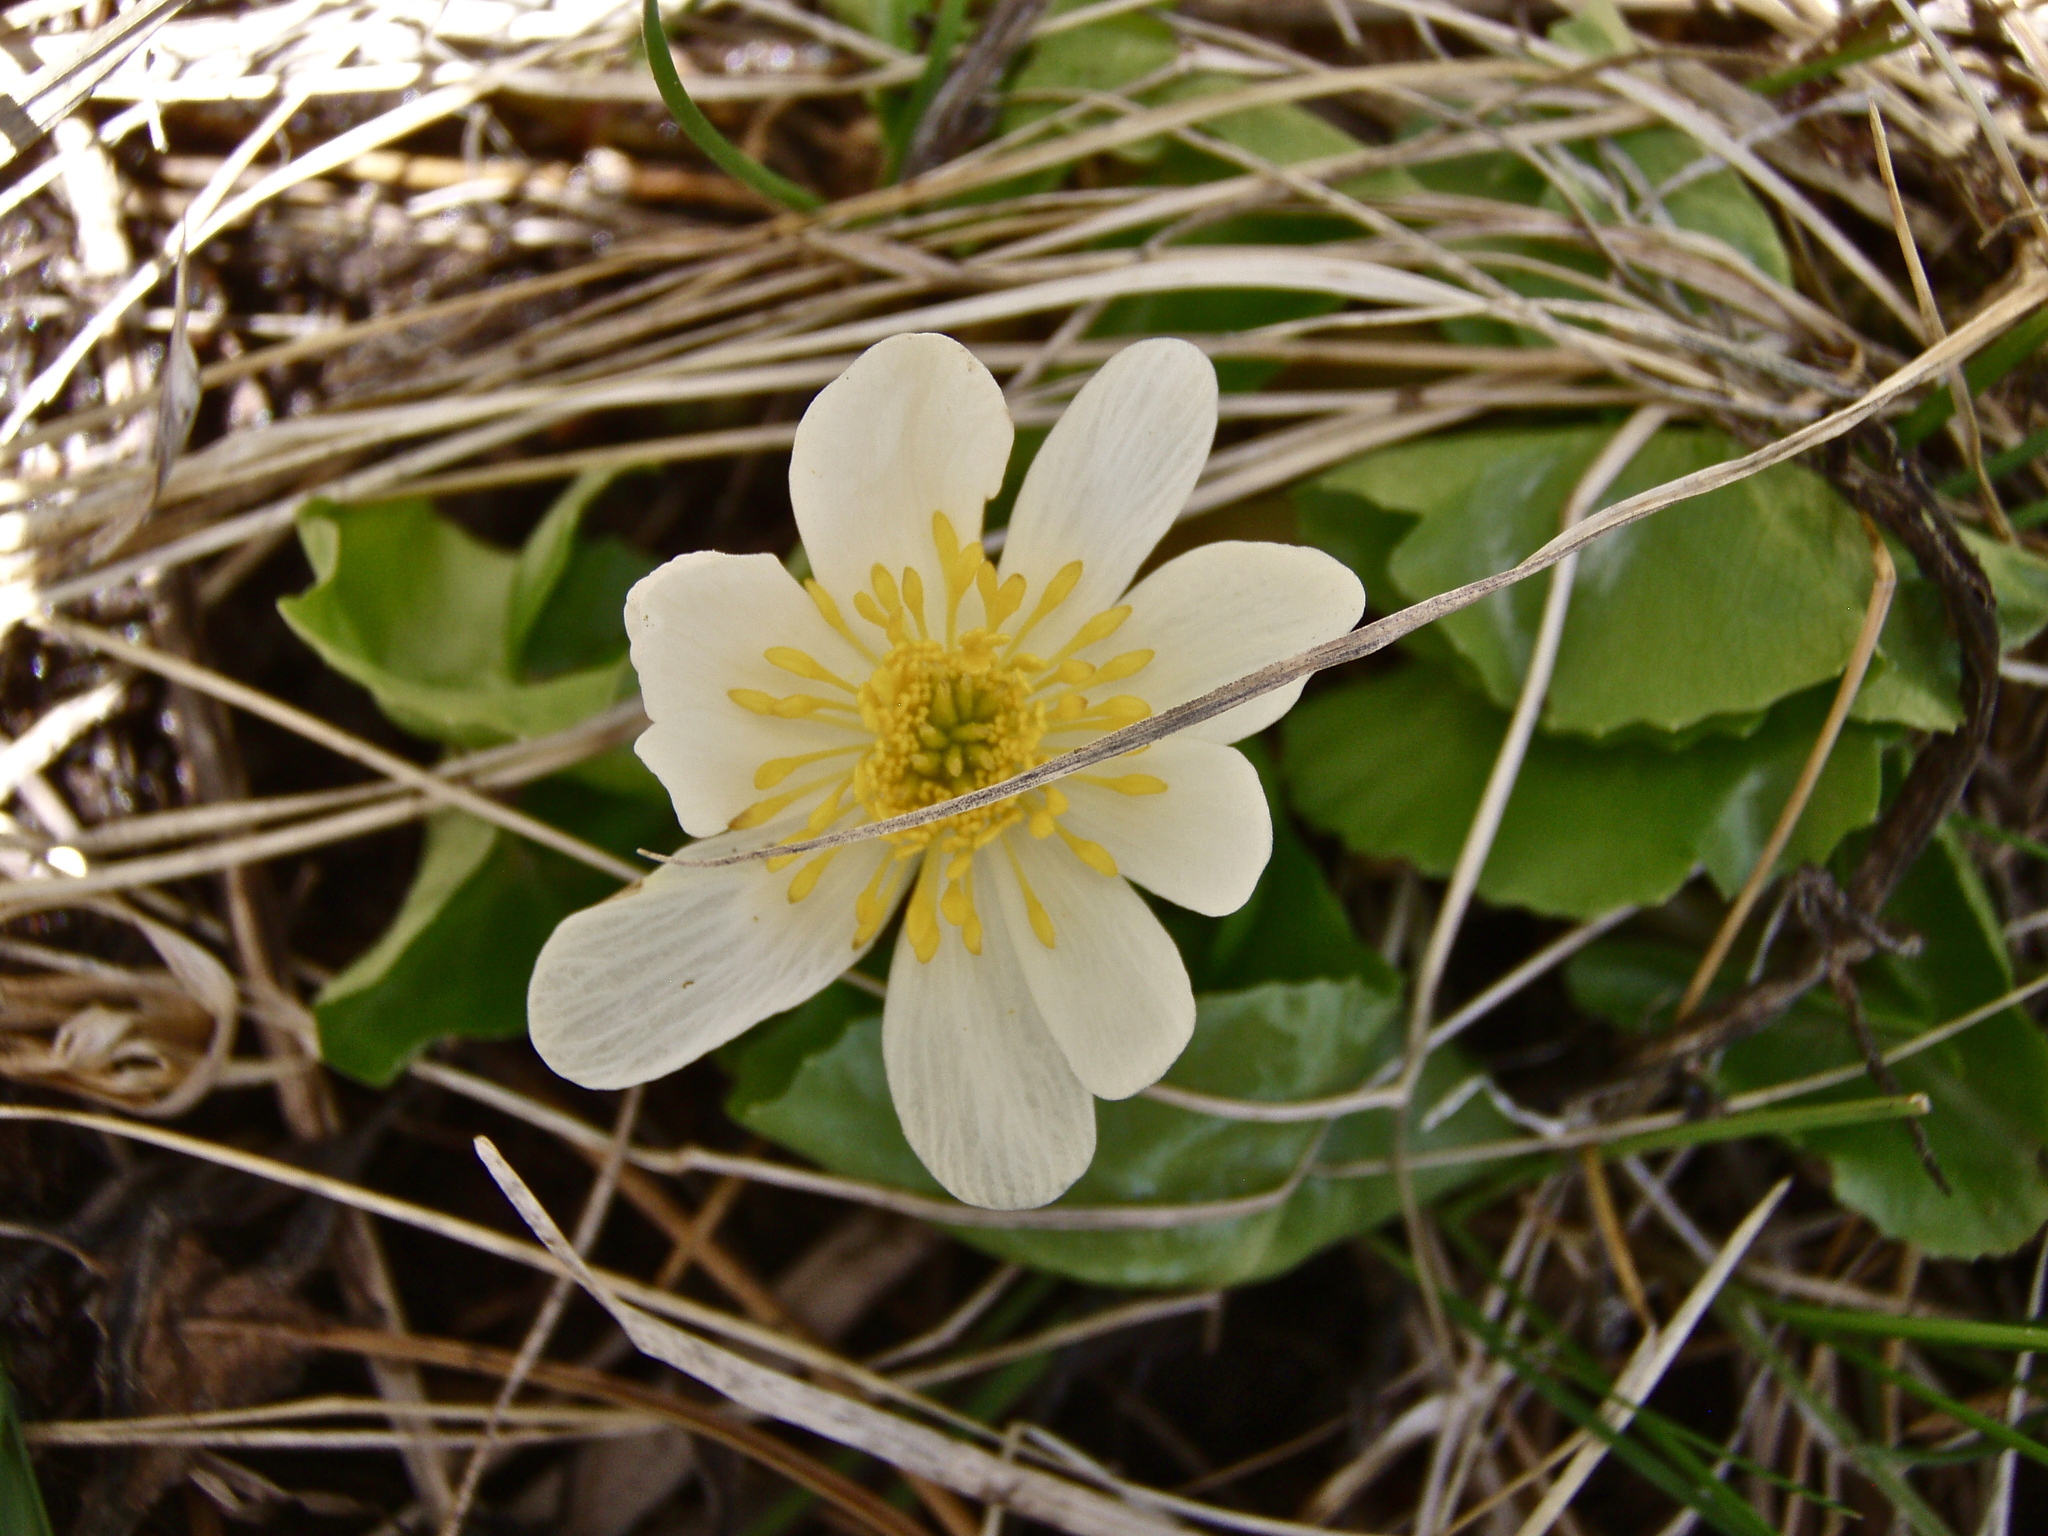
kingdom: Plantae
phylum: Tracheophyta
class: Magnoliopsida
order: Ranunculales
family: Ranunculaceae
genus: Caltha
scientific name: Caltha leptosepala
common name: Elkslip
